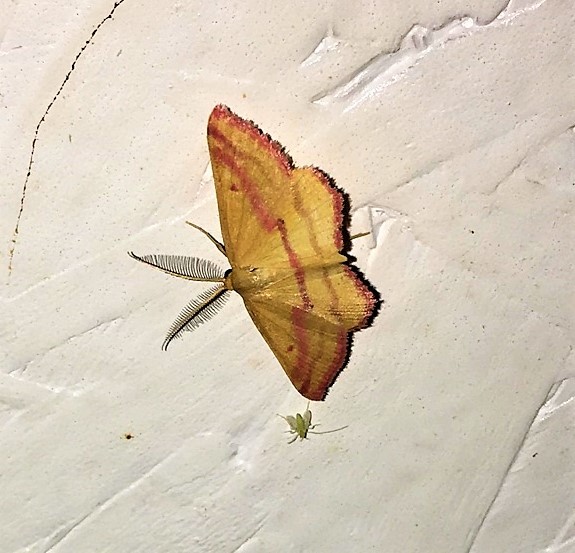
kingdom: Animalia
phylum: Arthropoda
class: Insecta
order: Lepidoptera
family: Geometridae
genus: Haematopis
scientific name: Haematopis grataria
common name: Chickweed geometer
